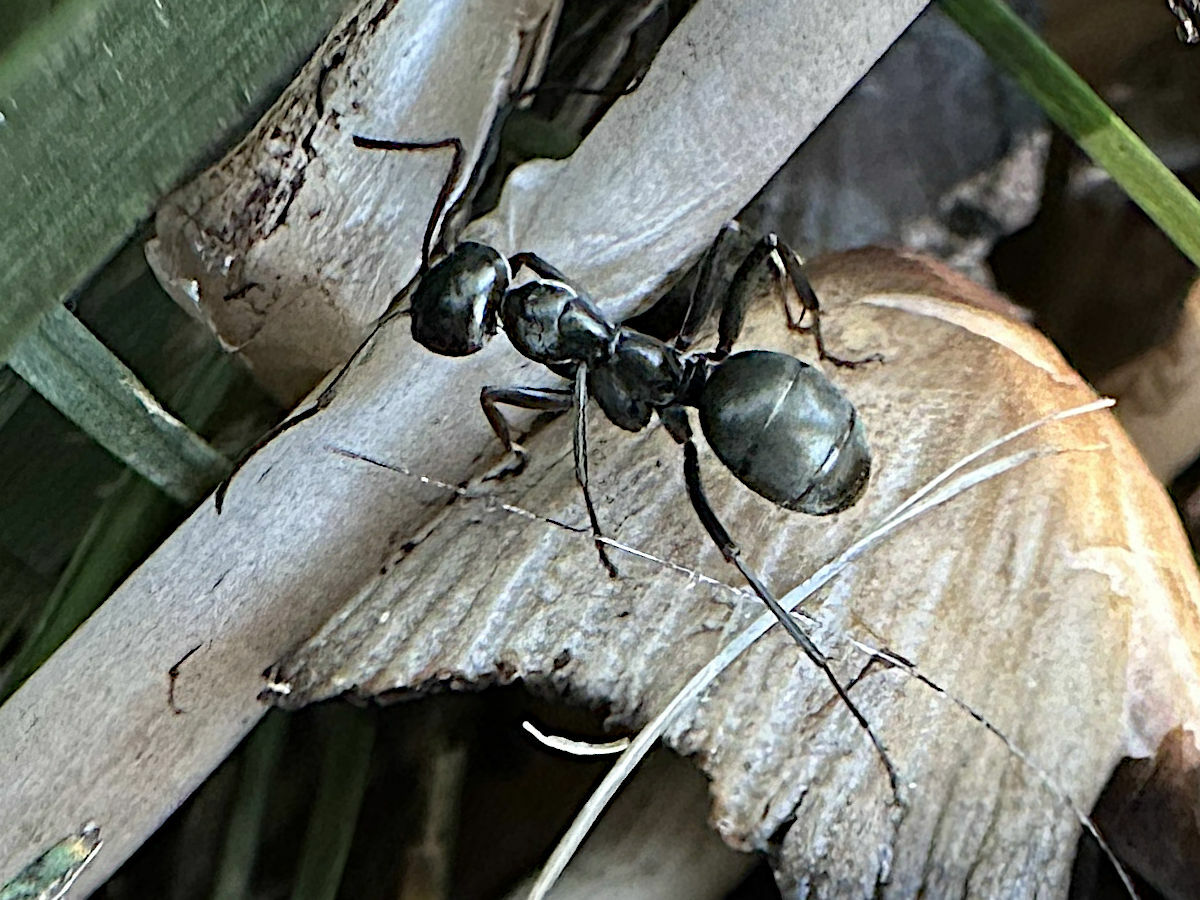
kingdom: Animalia
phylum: Arthropoda
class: Insecta
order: Hymenoptera
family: Formicidae
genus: Formica
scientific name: Formica subsericea
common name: Silky field ant
